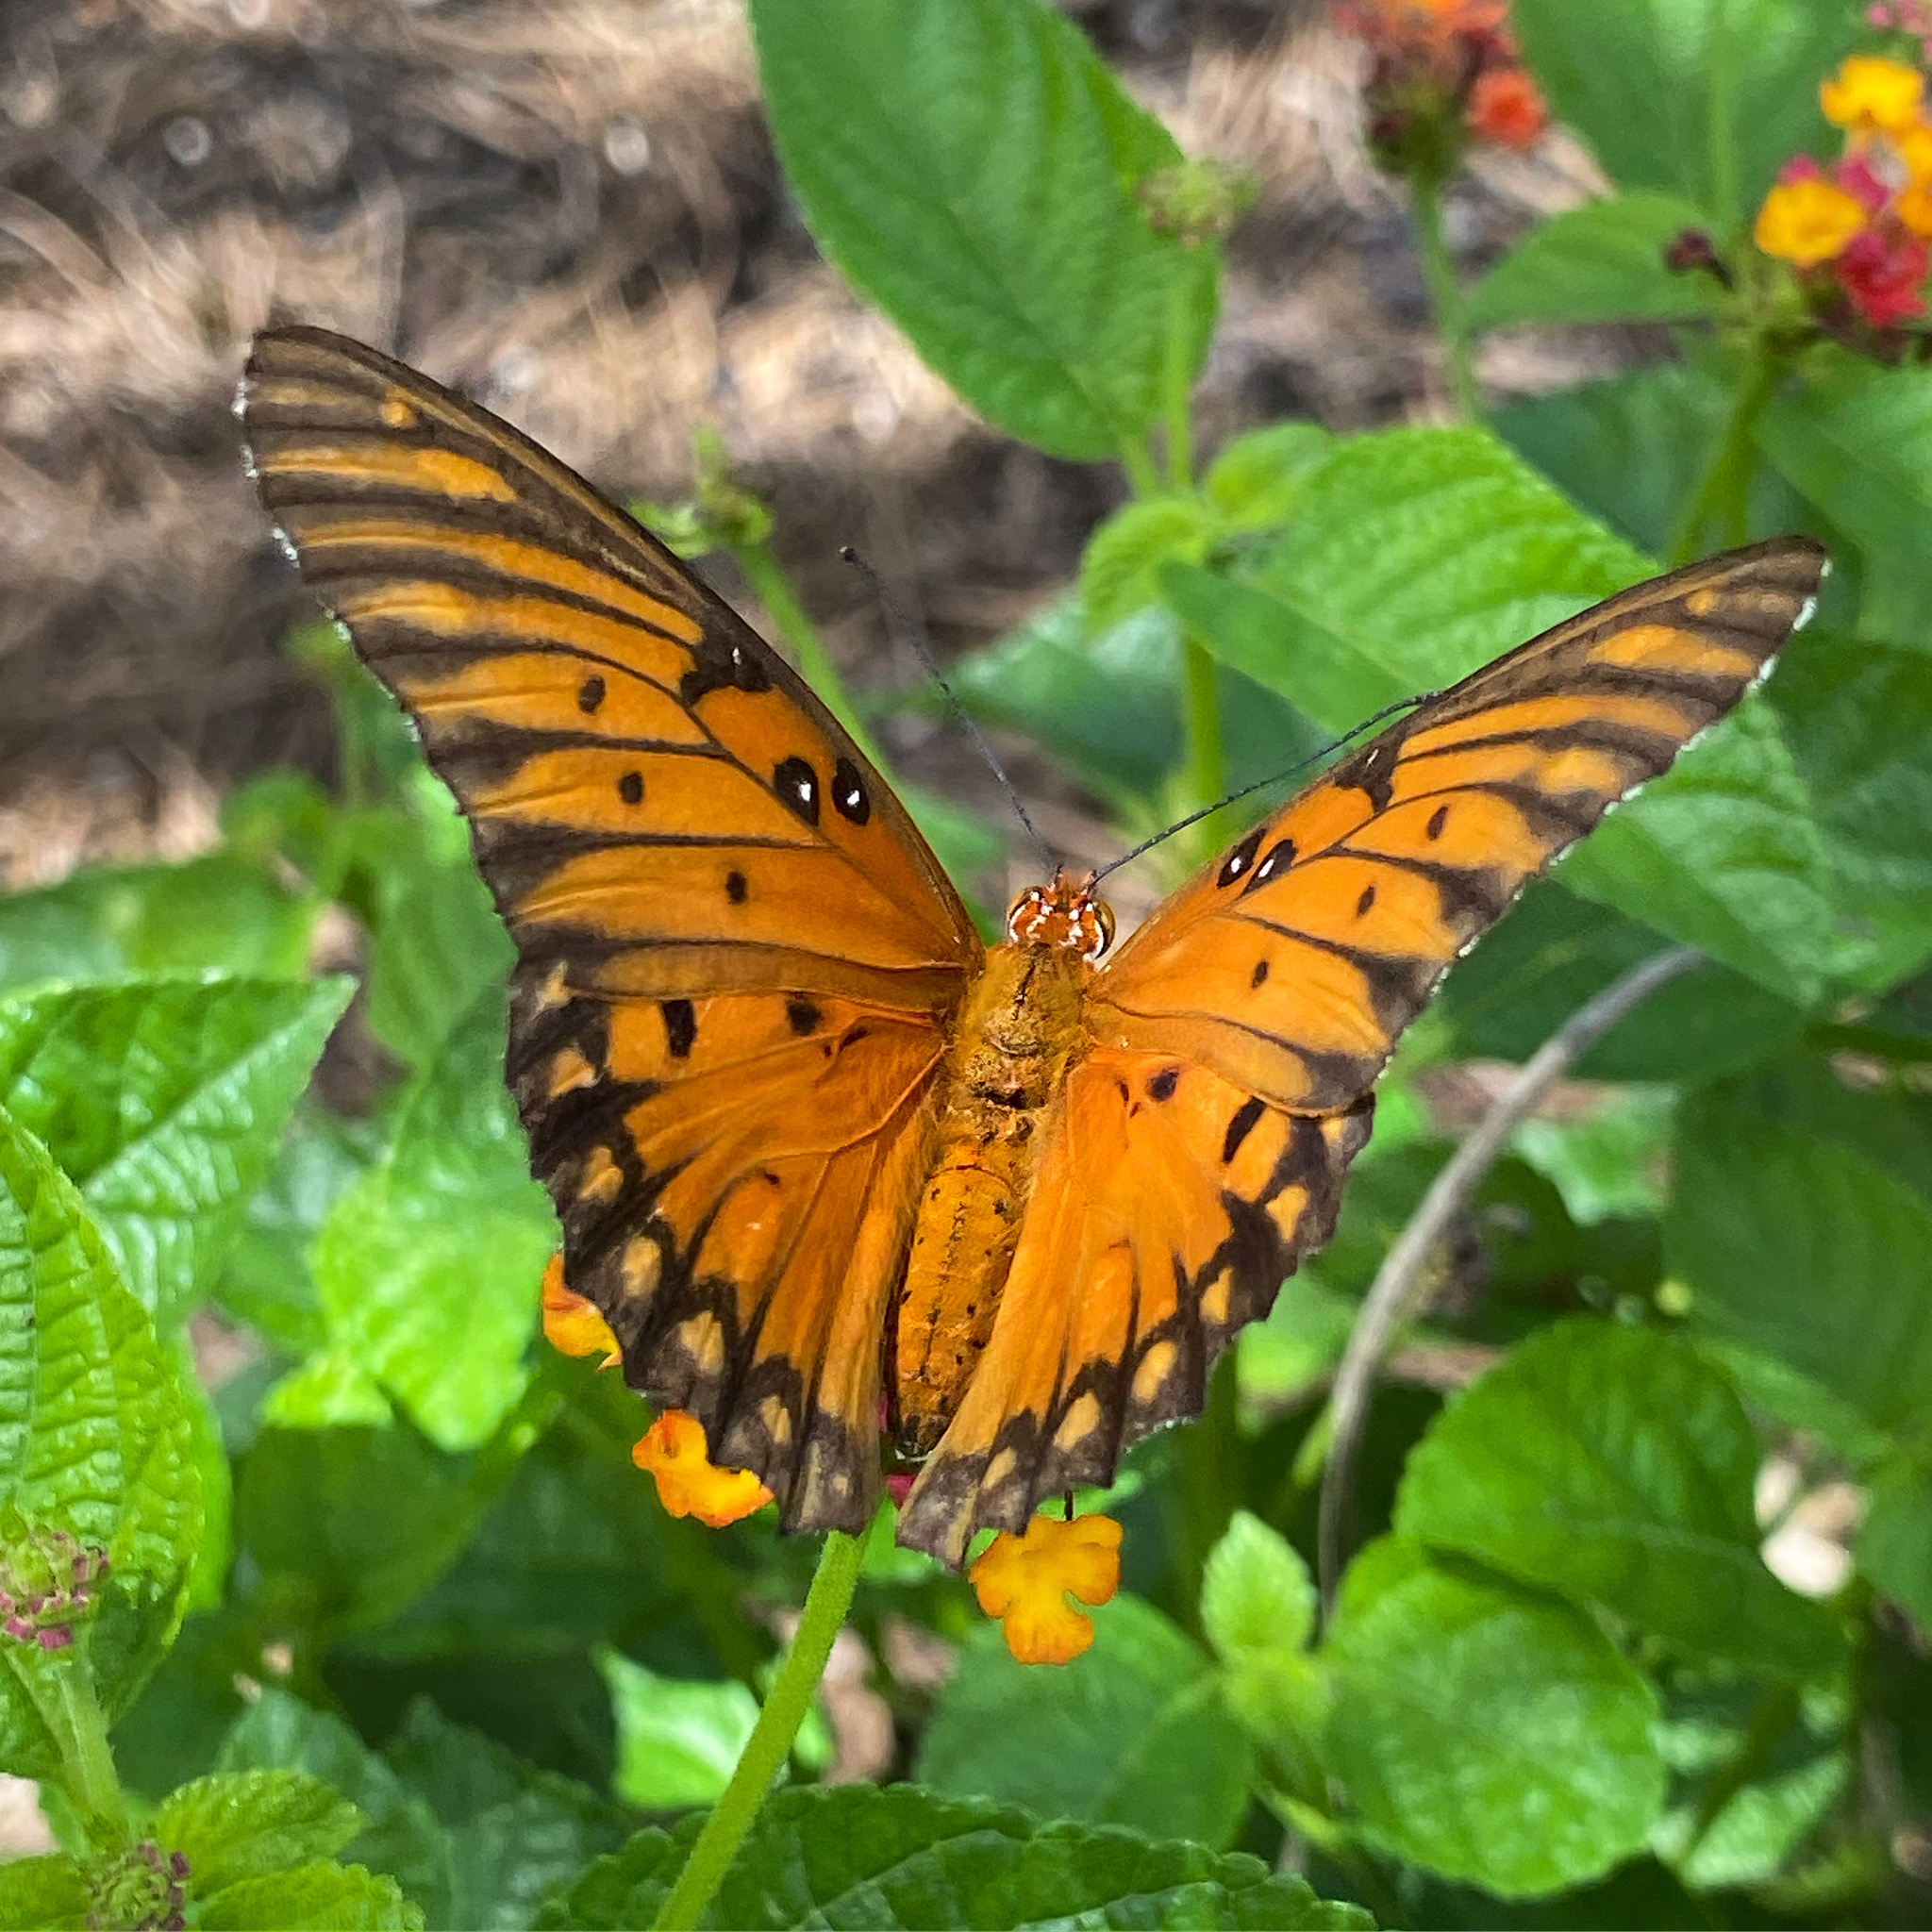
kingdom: Animalia
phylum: Arthropoda
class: Insecta
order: Lepidoptera
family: Nymphalidae
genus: Dione
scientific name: Dione vanillae
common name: Gulf fritillary
